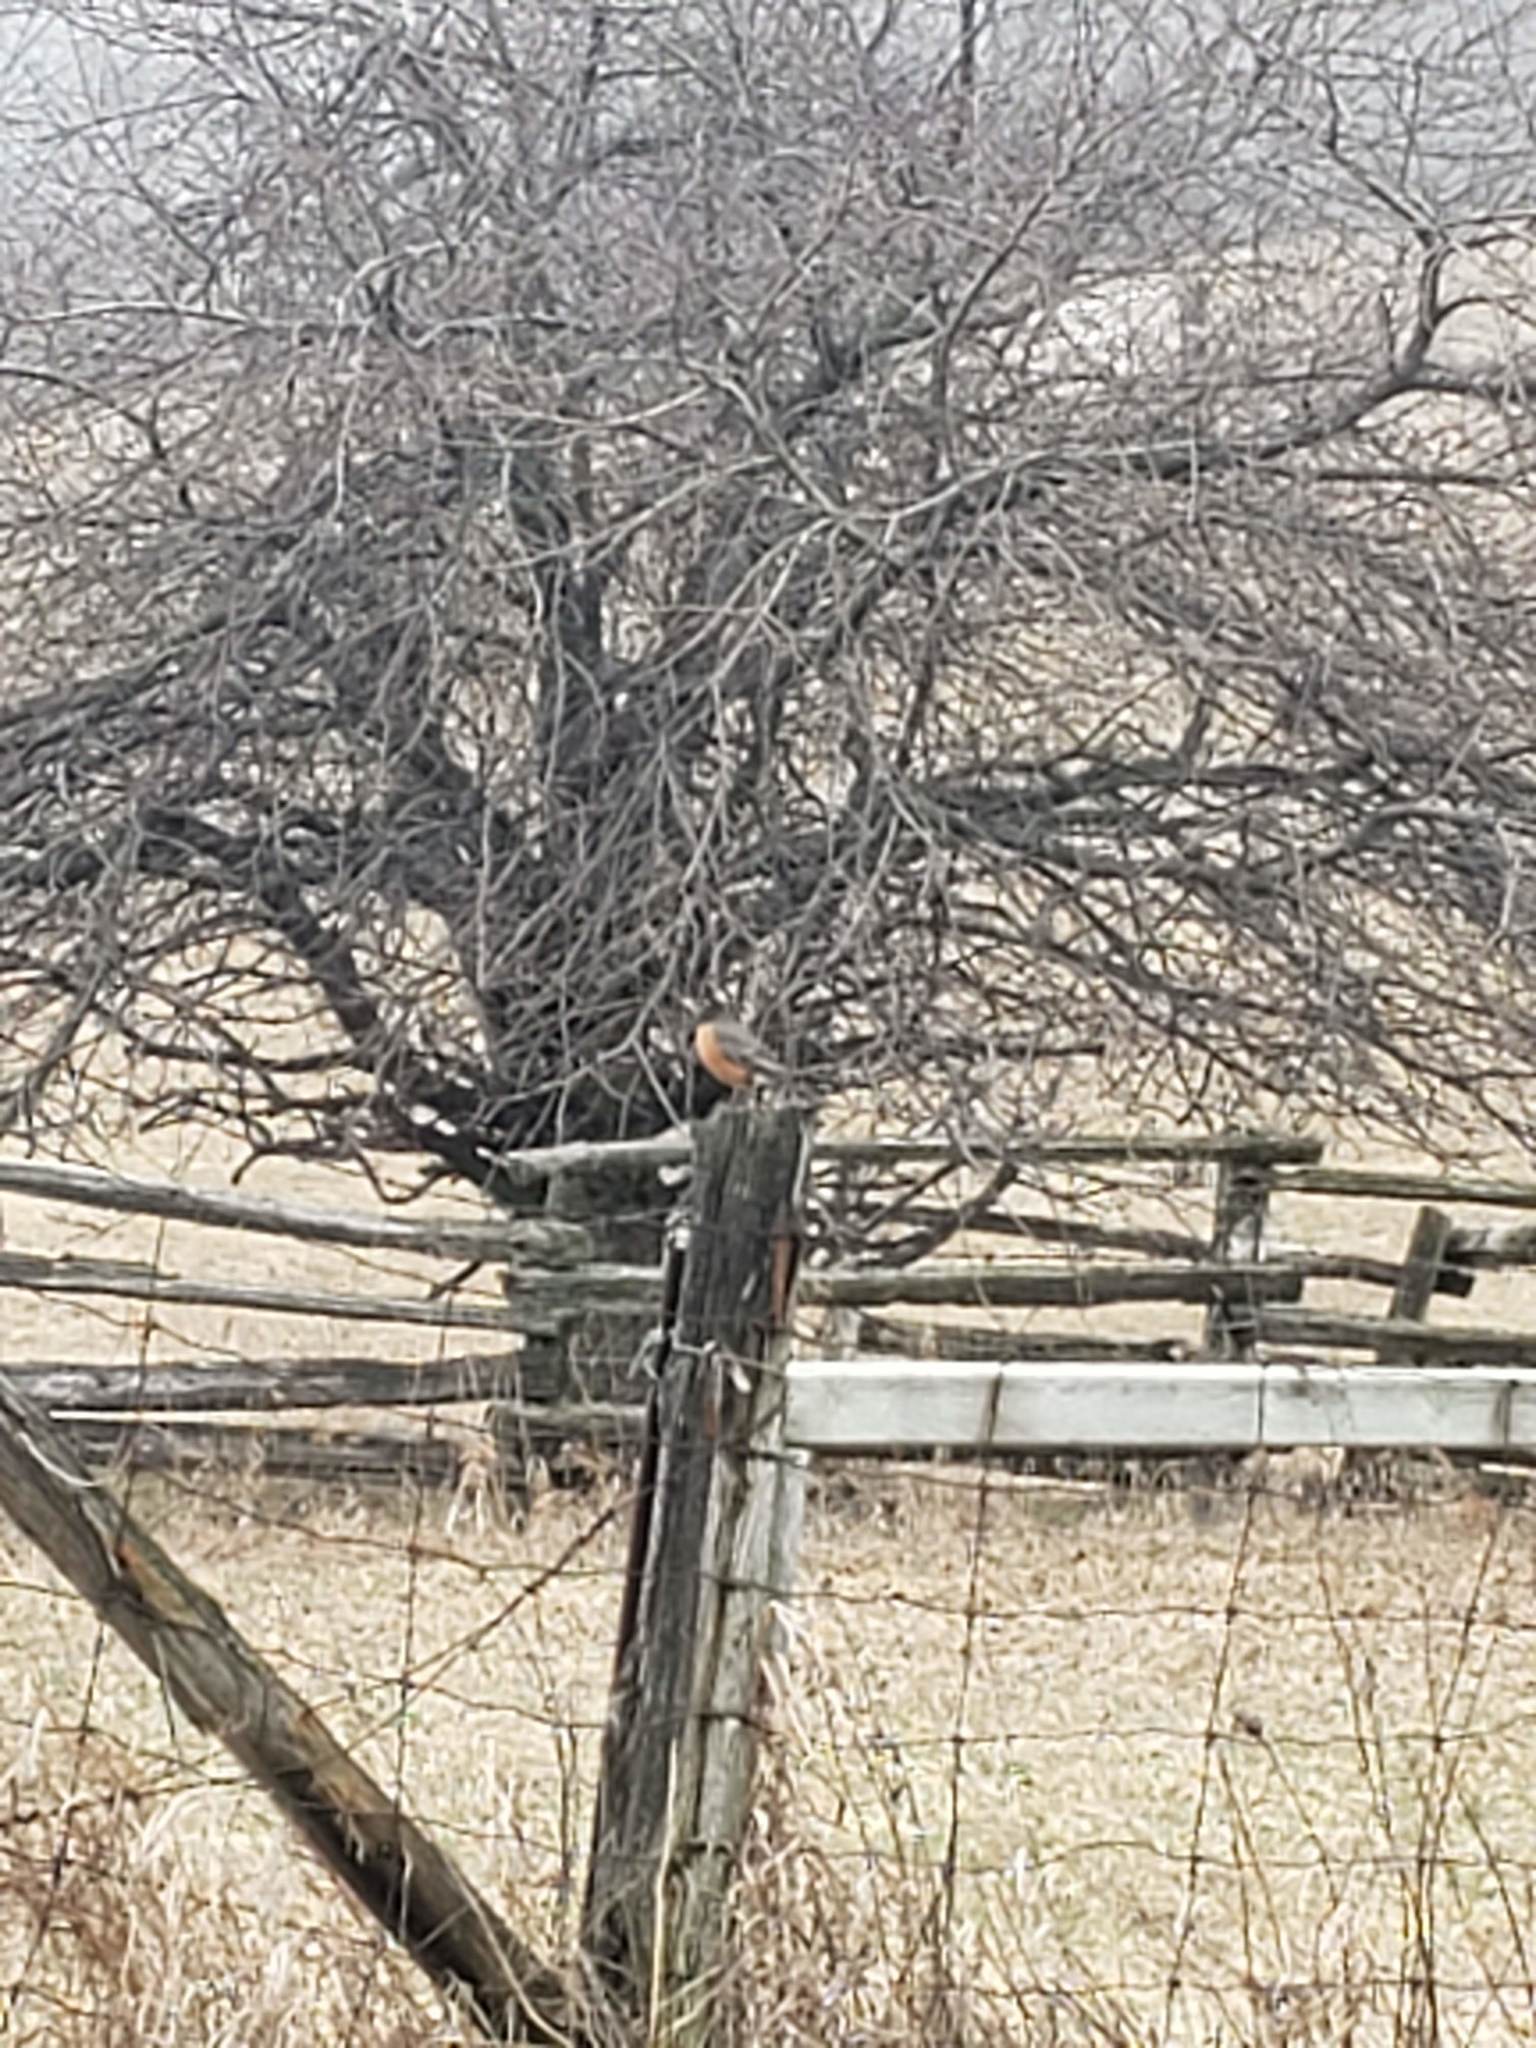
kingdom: Animalia
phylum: Chordata
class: Aves
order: Passeriformes
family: Turdidae
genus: Turdus
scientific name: Turdus migratorius
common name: American robin
